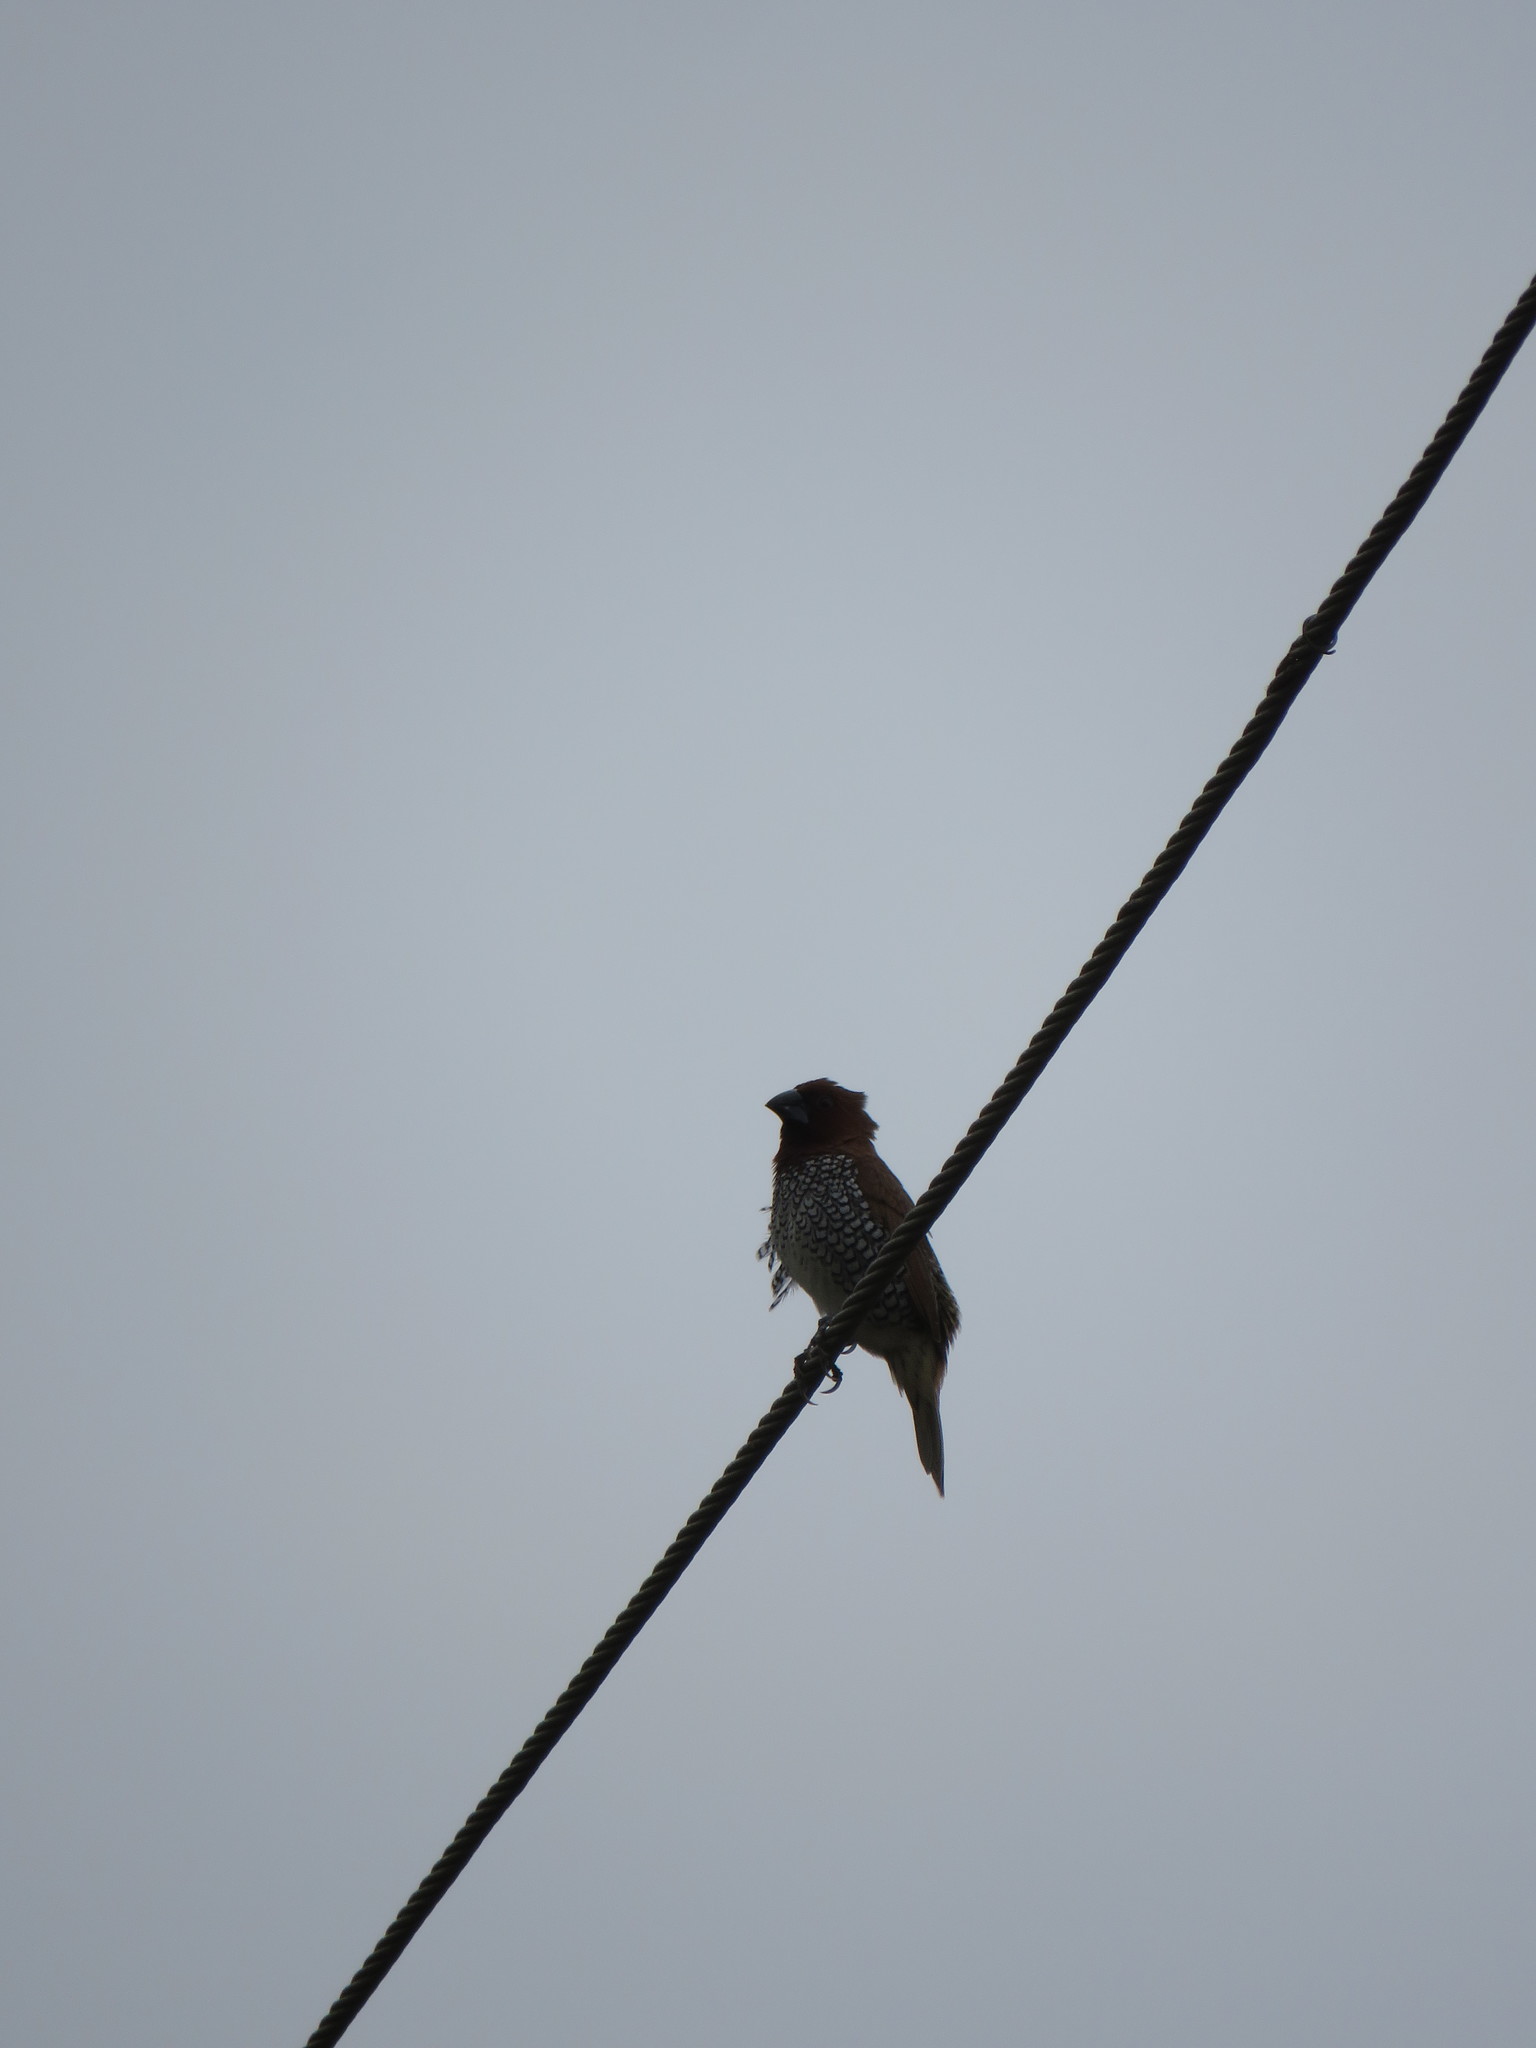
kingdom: Animalia
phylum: Chordata
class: Aves
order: Passeriformes
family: Estrildidae
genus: Lonchura
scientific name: Lonchura punctulata
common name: Scaly-breasted munia
